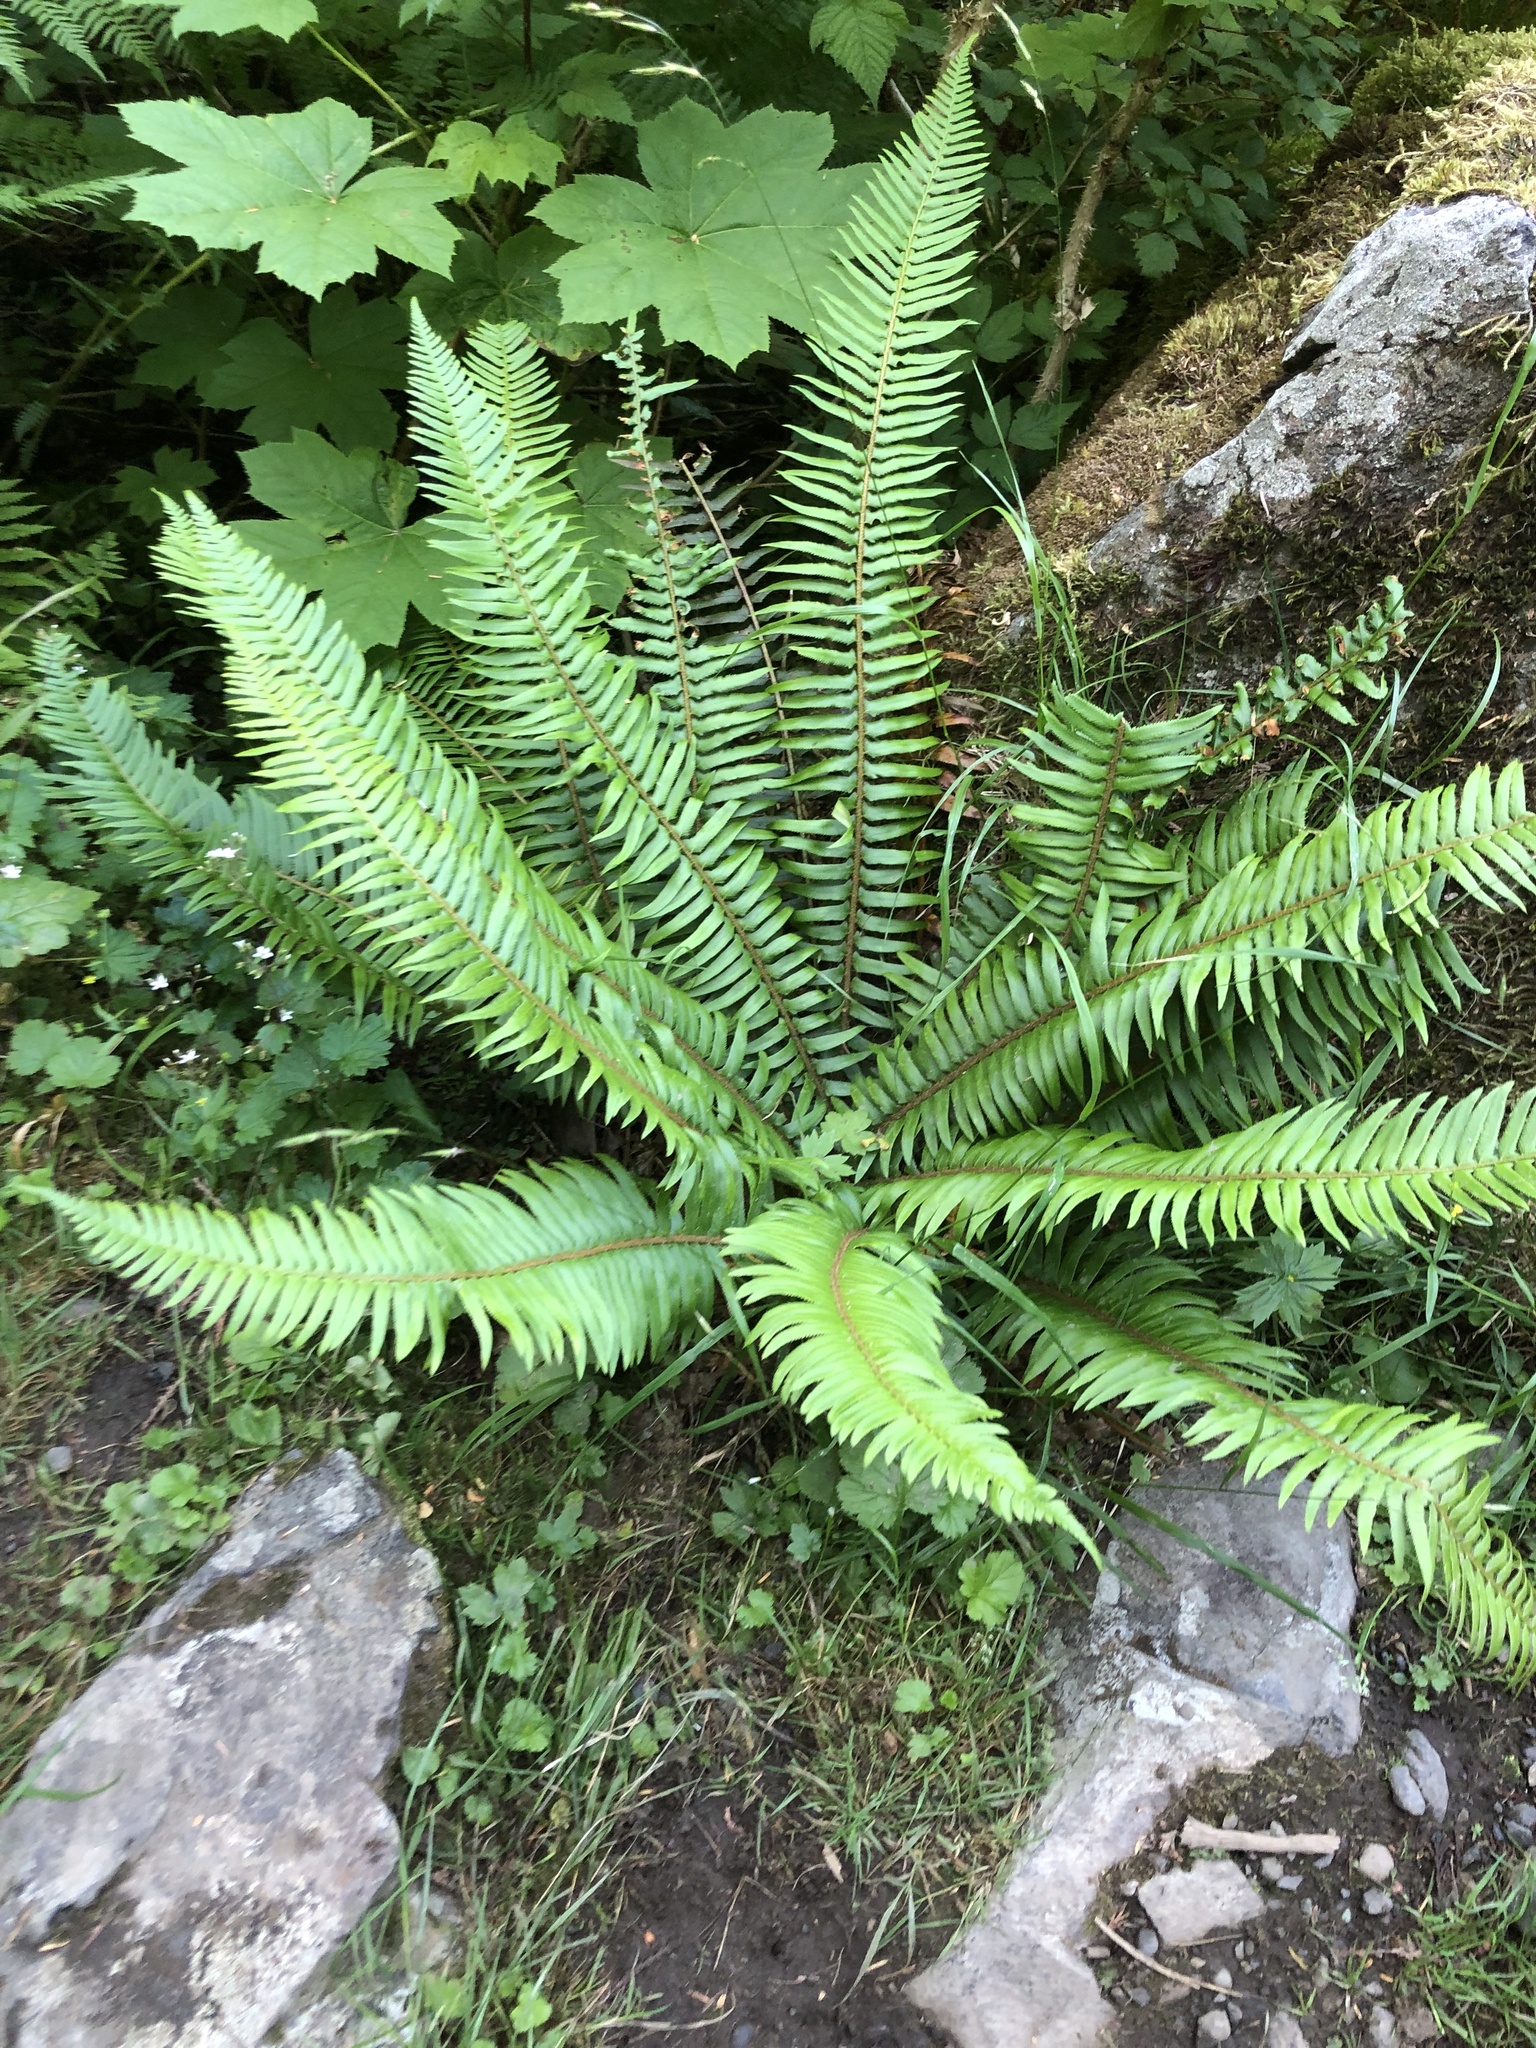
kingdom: Plantae
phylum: Tracheophyta
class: Polypodiopsida
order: Polypodiales
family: Dryopteridaceae
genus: Polystichum
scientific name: Polystichum munitum
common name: Western sword-fern
